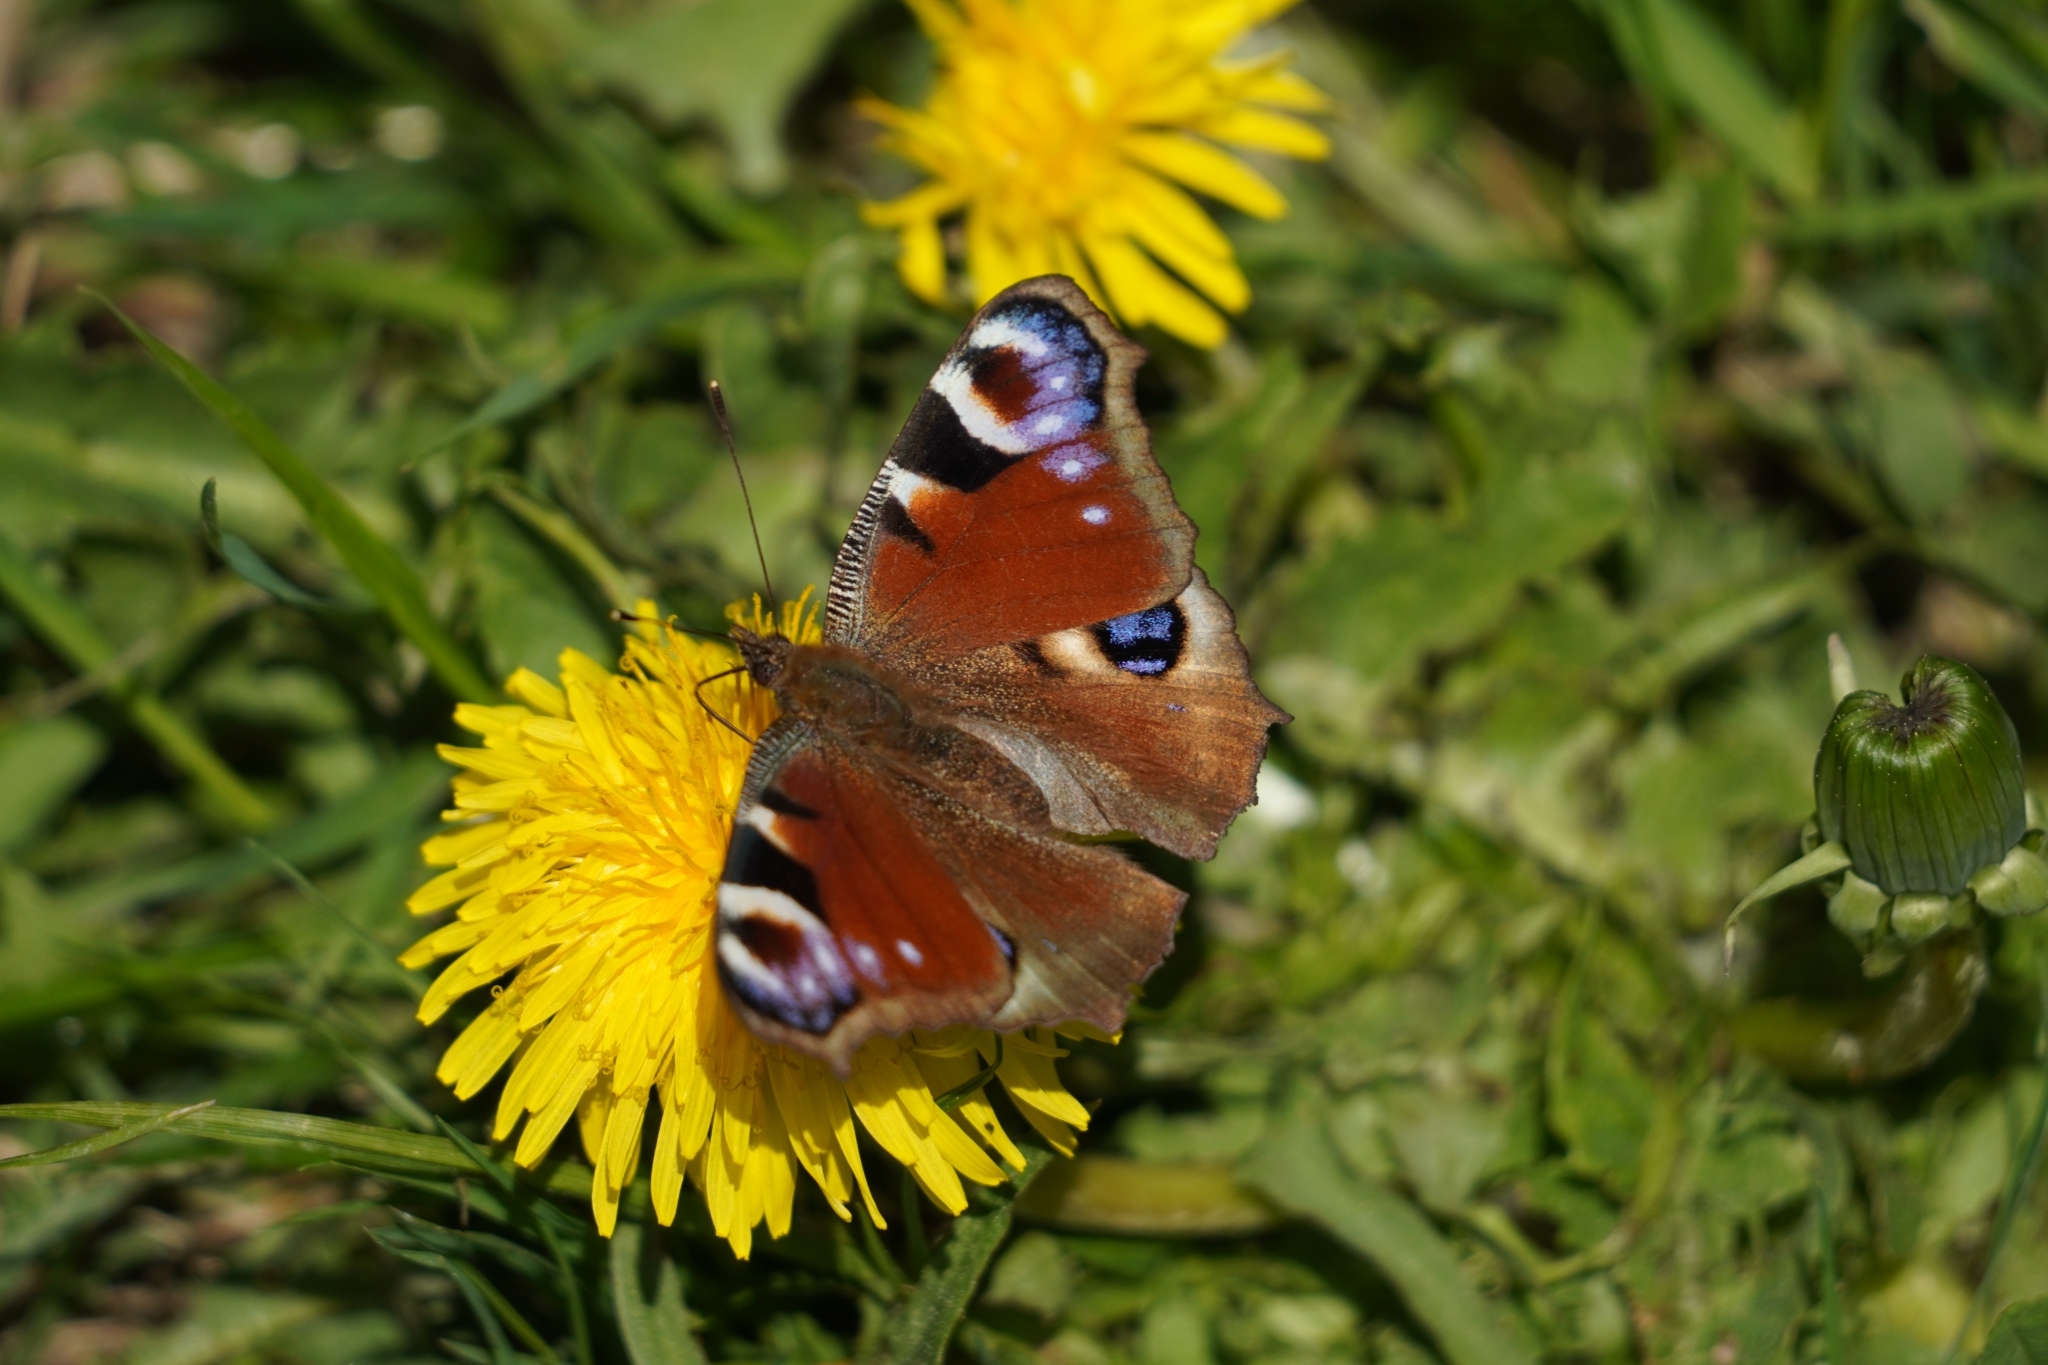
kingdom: Animalia
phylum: Arthropoda
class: Insecta
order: Lepidoptera
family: Nymphalidae
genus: Aglais
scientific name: Aglais io
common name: Peacock
